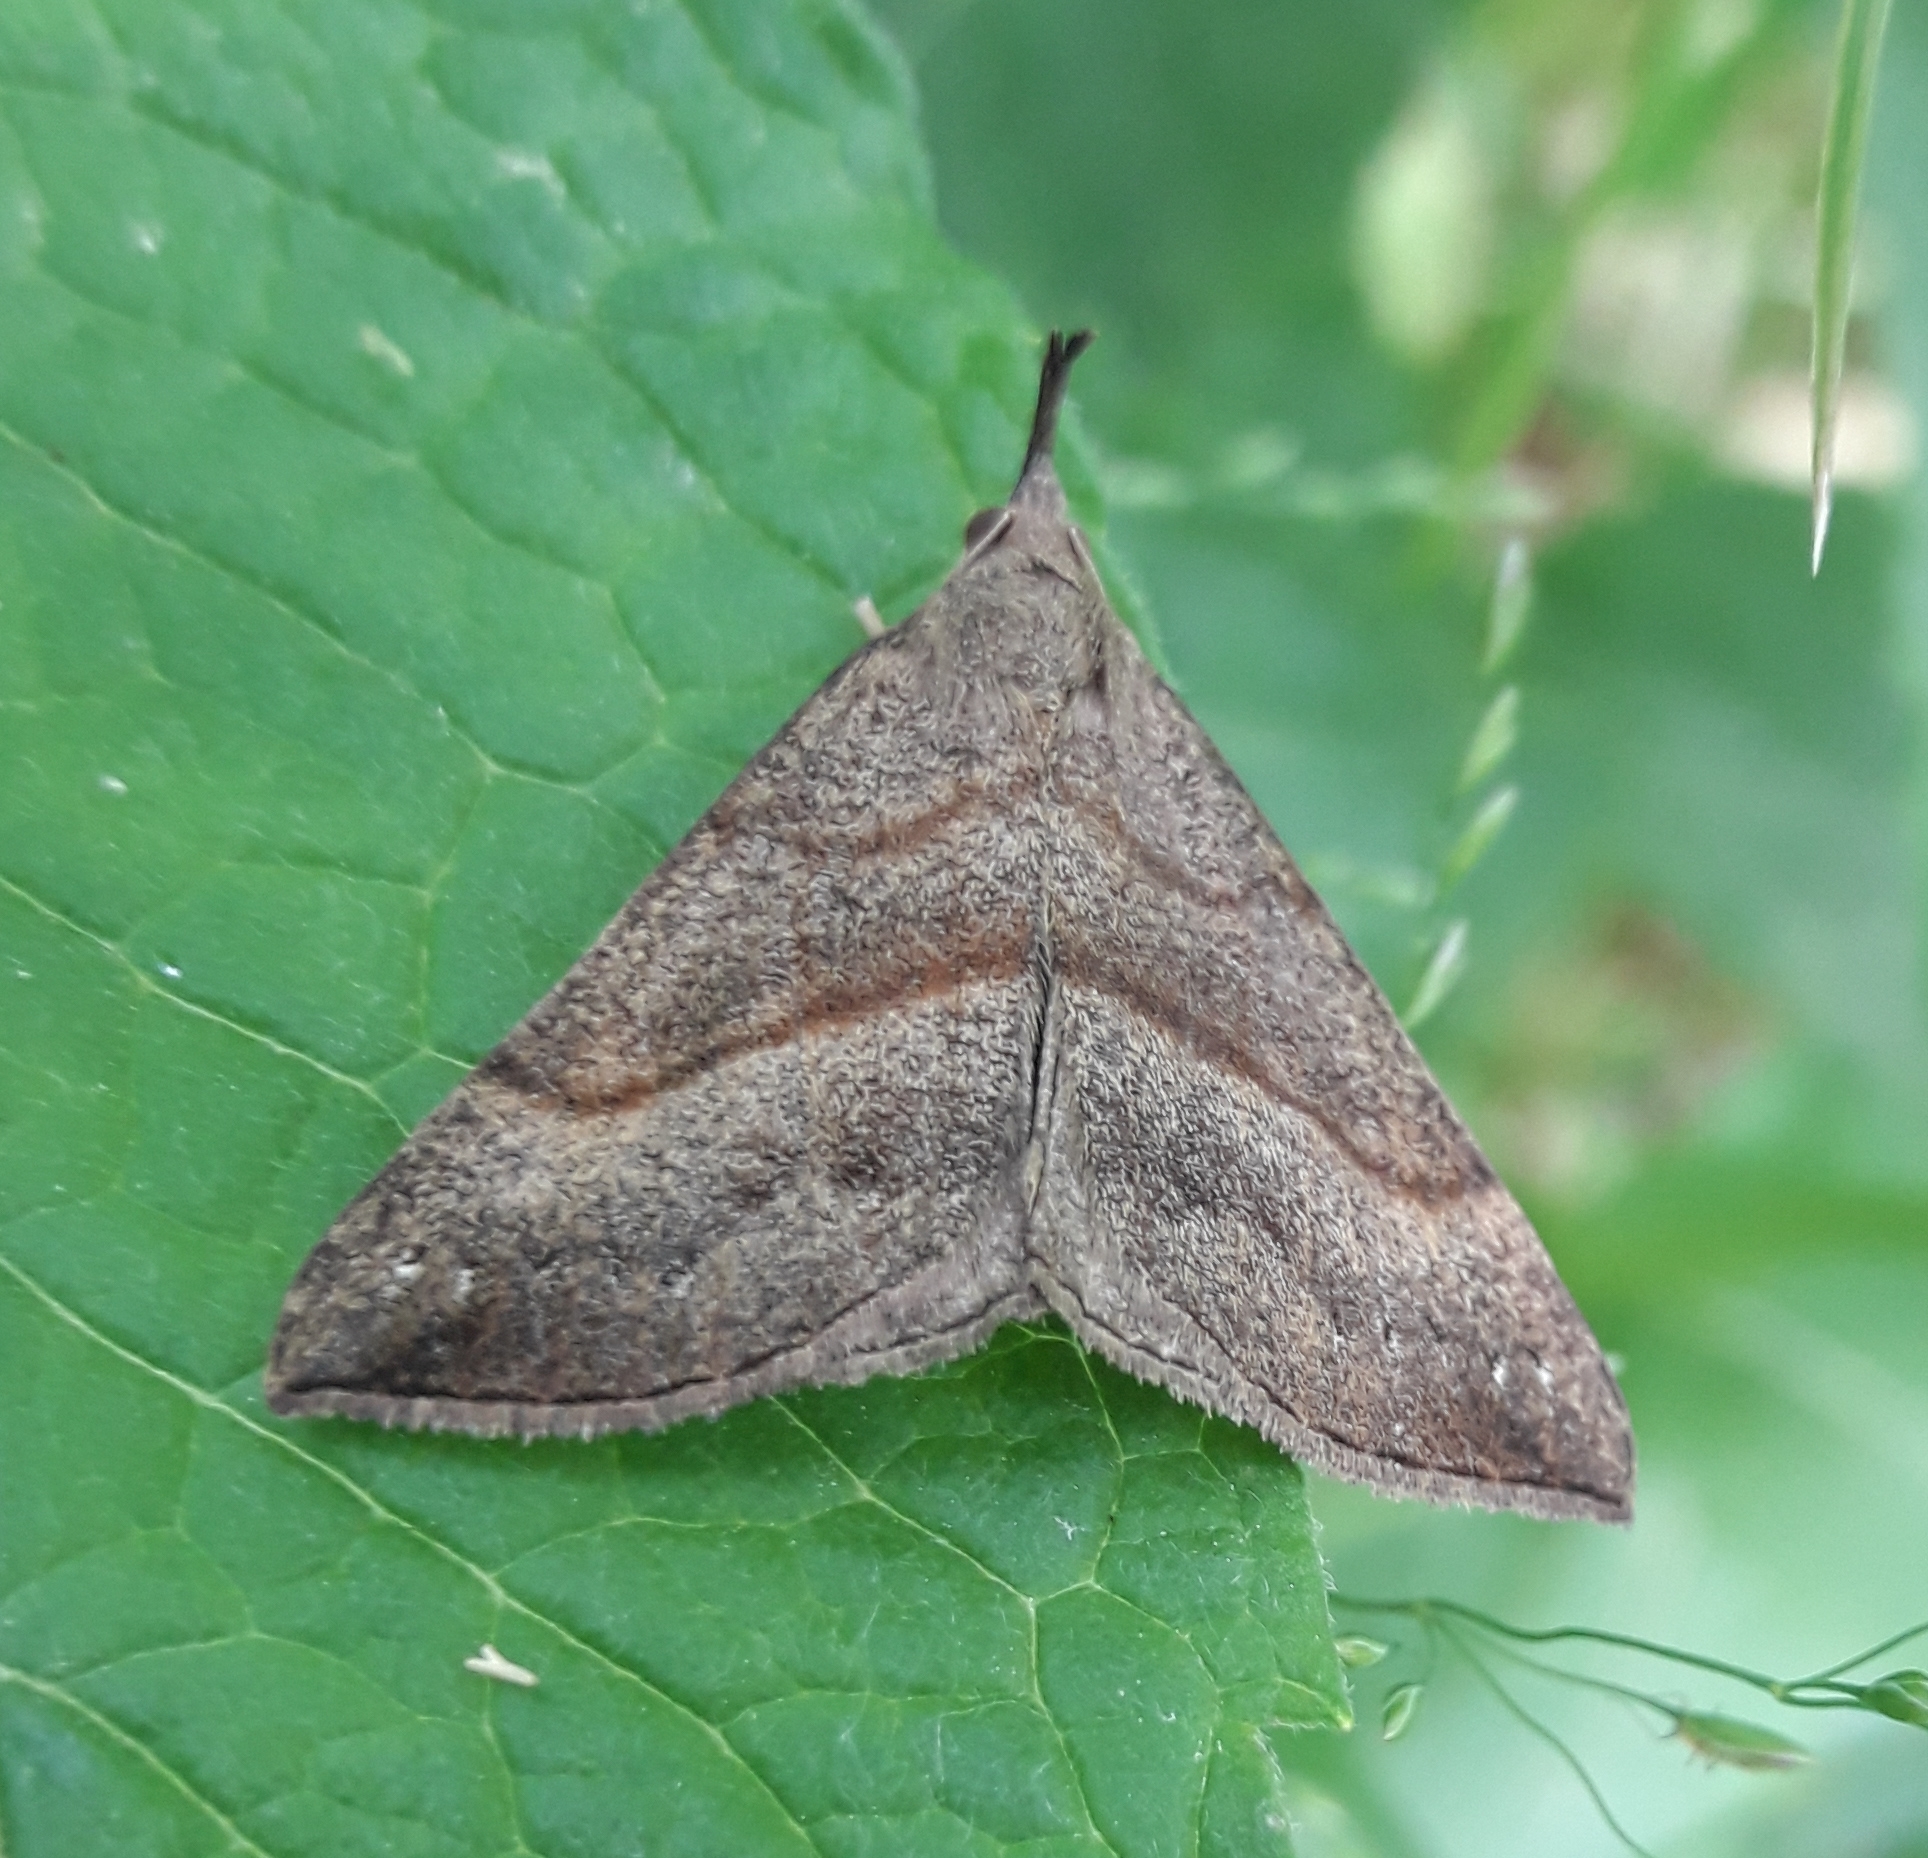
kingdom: Animalia
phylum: Arthropoda
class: Insecta
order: Lepidoptera
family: Erebidae
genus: Hypena
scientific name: Hypena proboscidalis
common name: Snout
